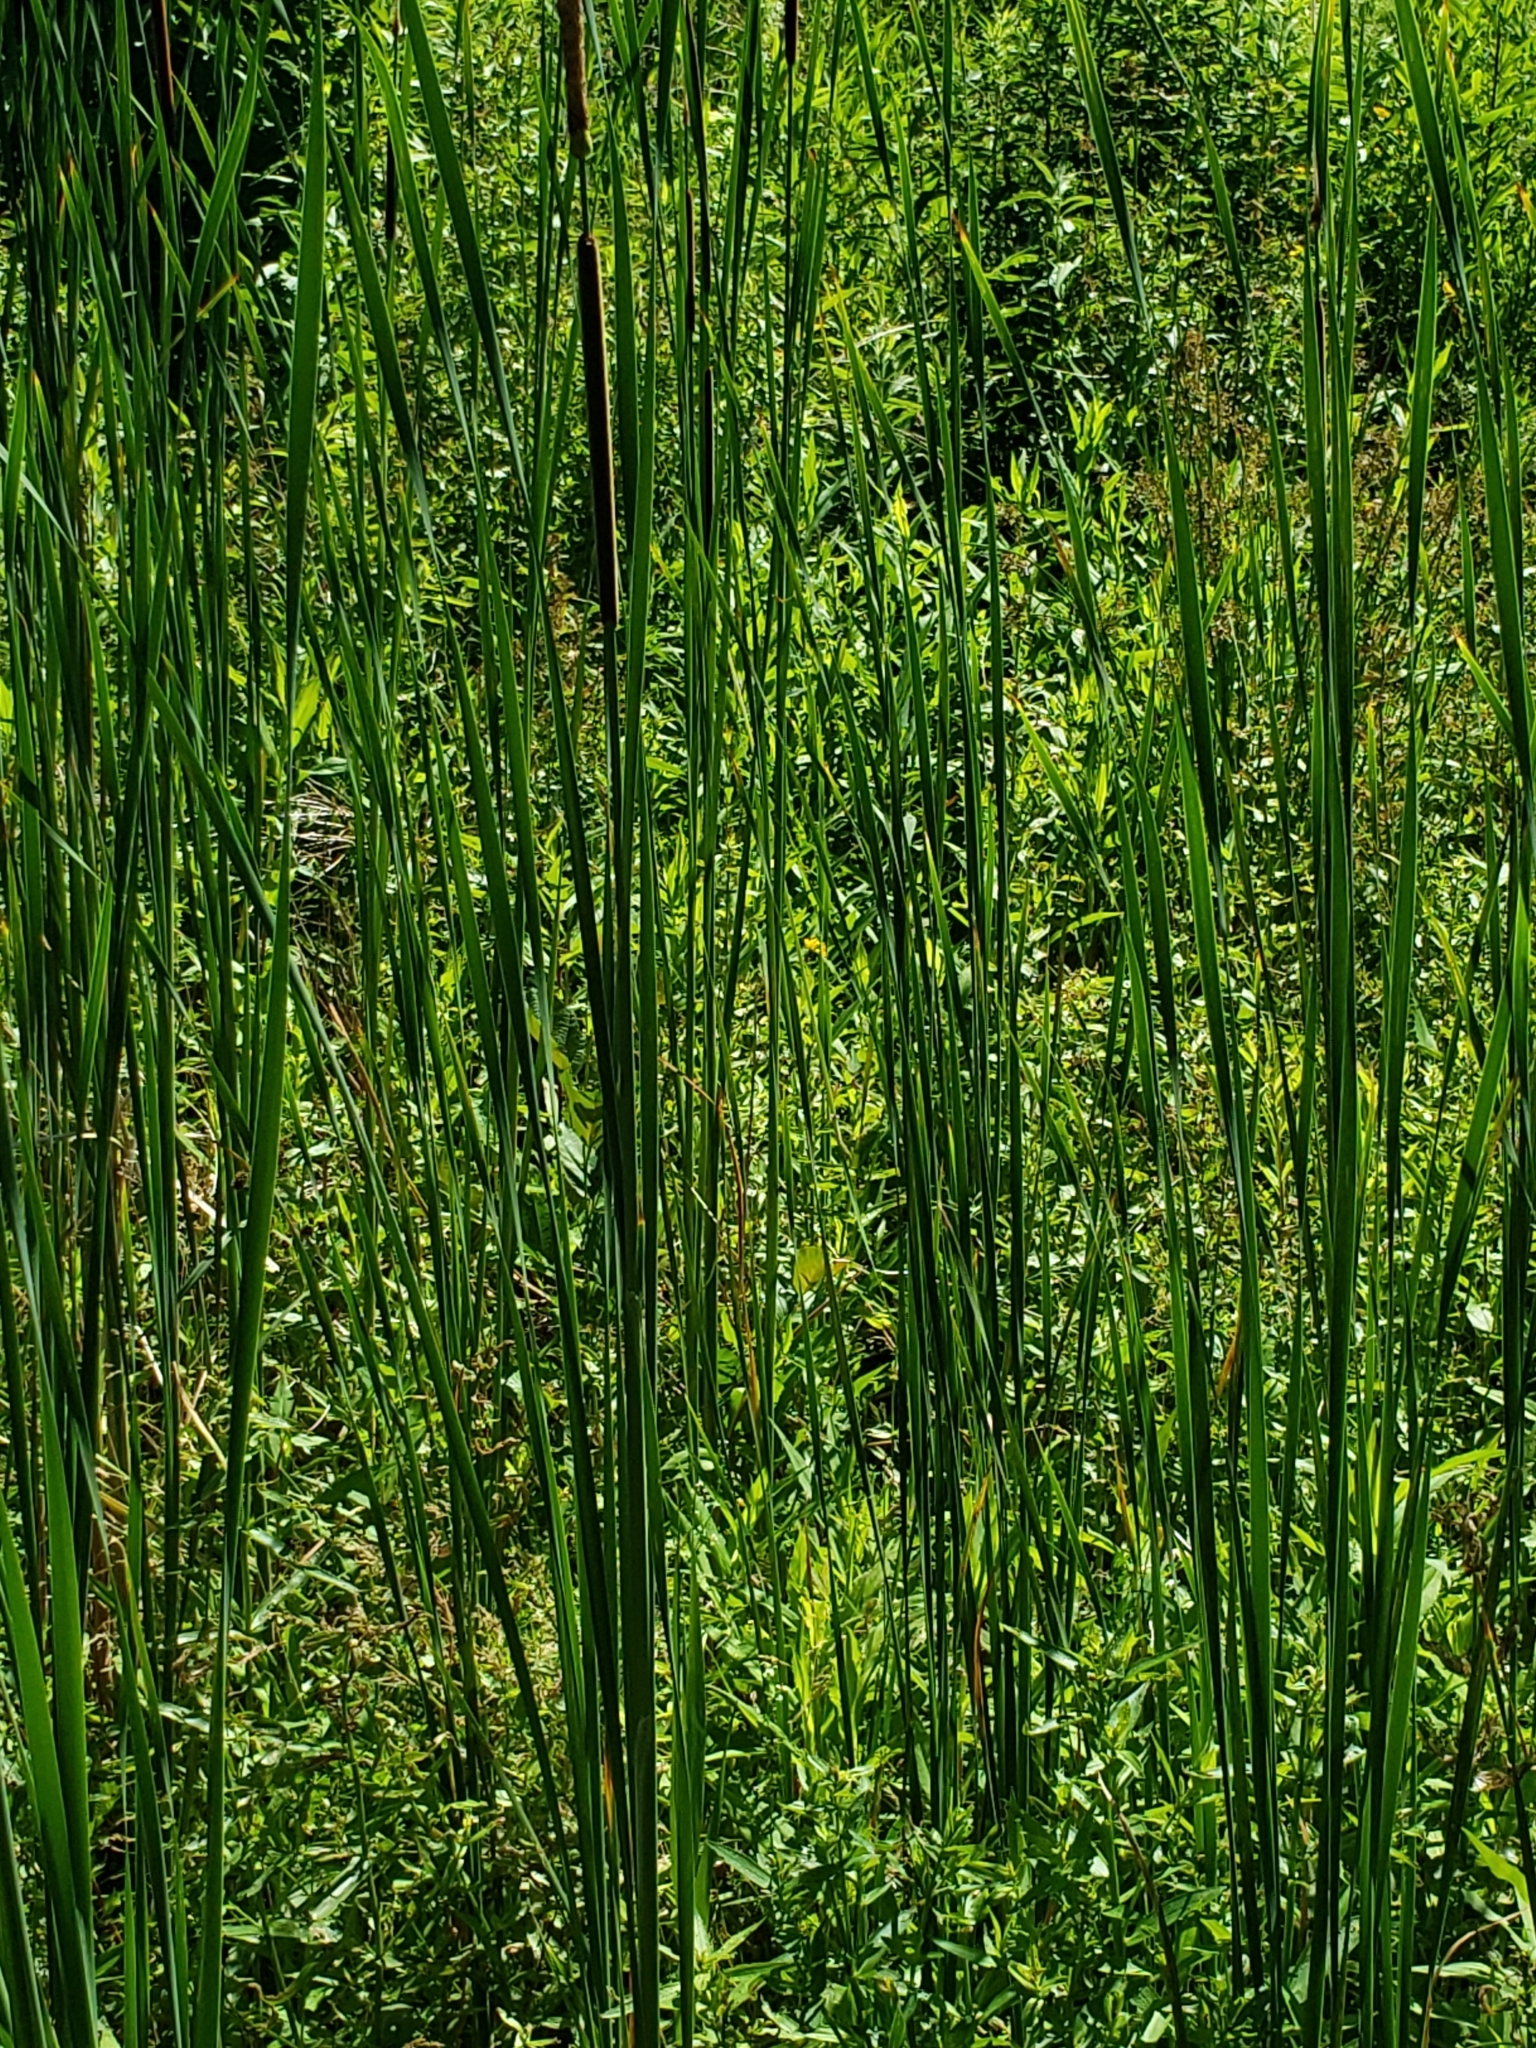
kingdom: Plantae
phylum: Tracheophyta
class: Liliopsida
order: Poales
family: Typhaceae
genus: Typha
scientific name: Typha angustifolia
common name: Lesser bulrush
